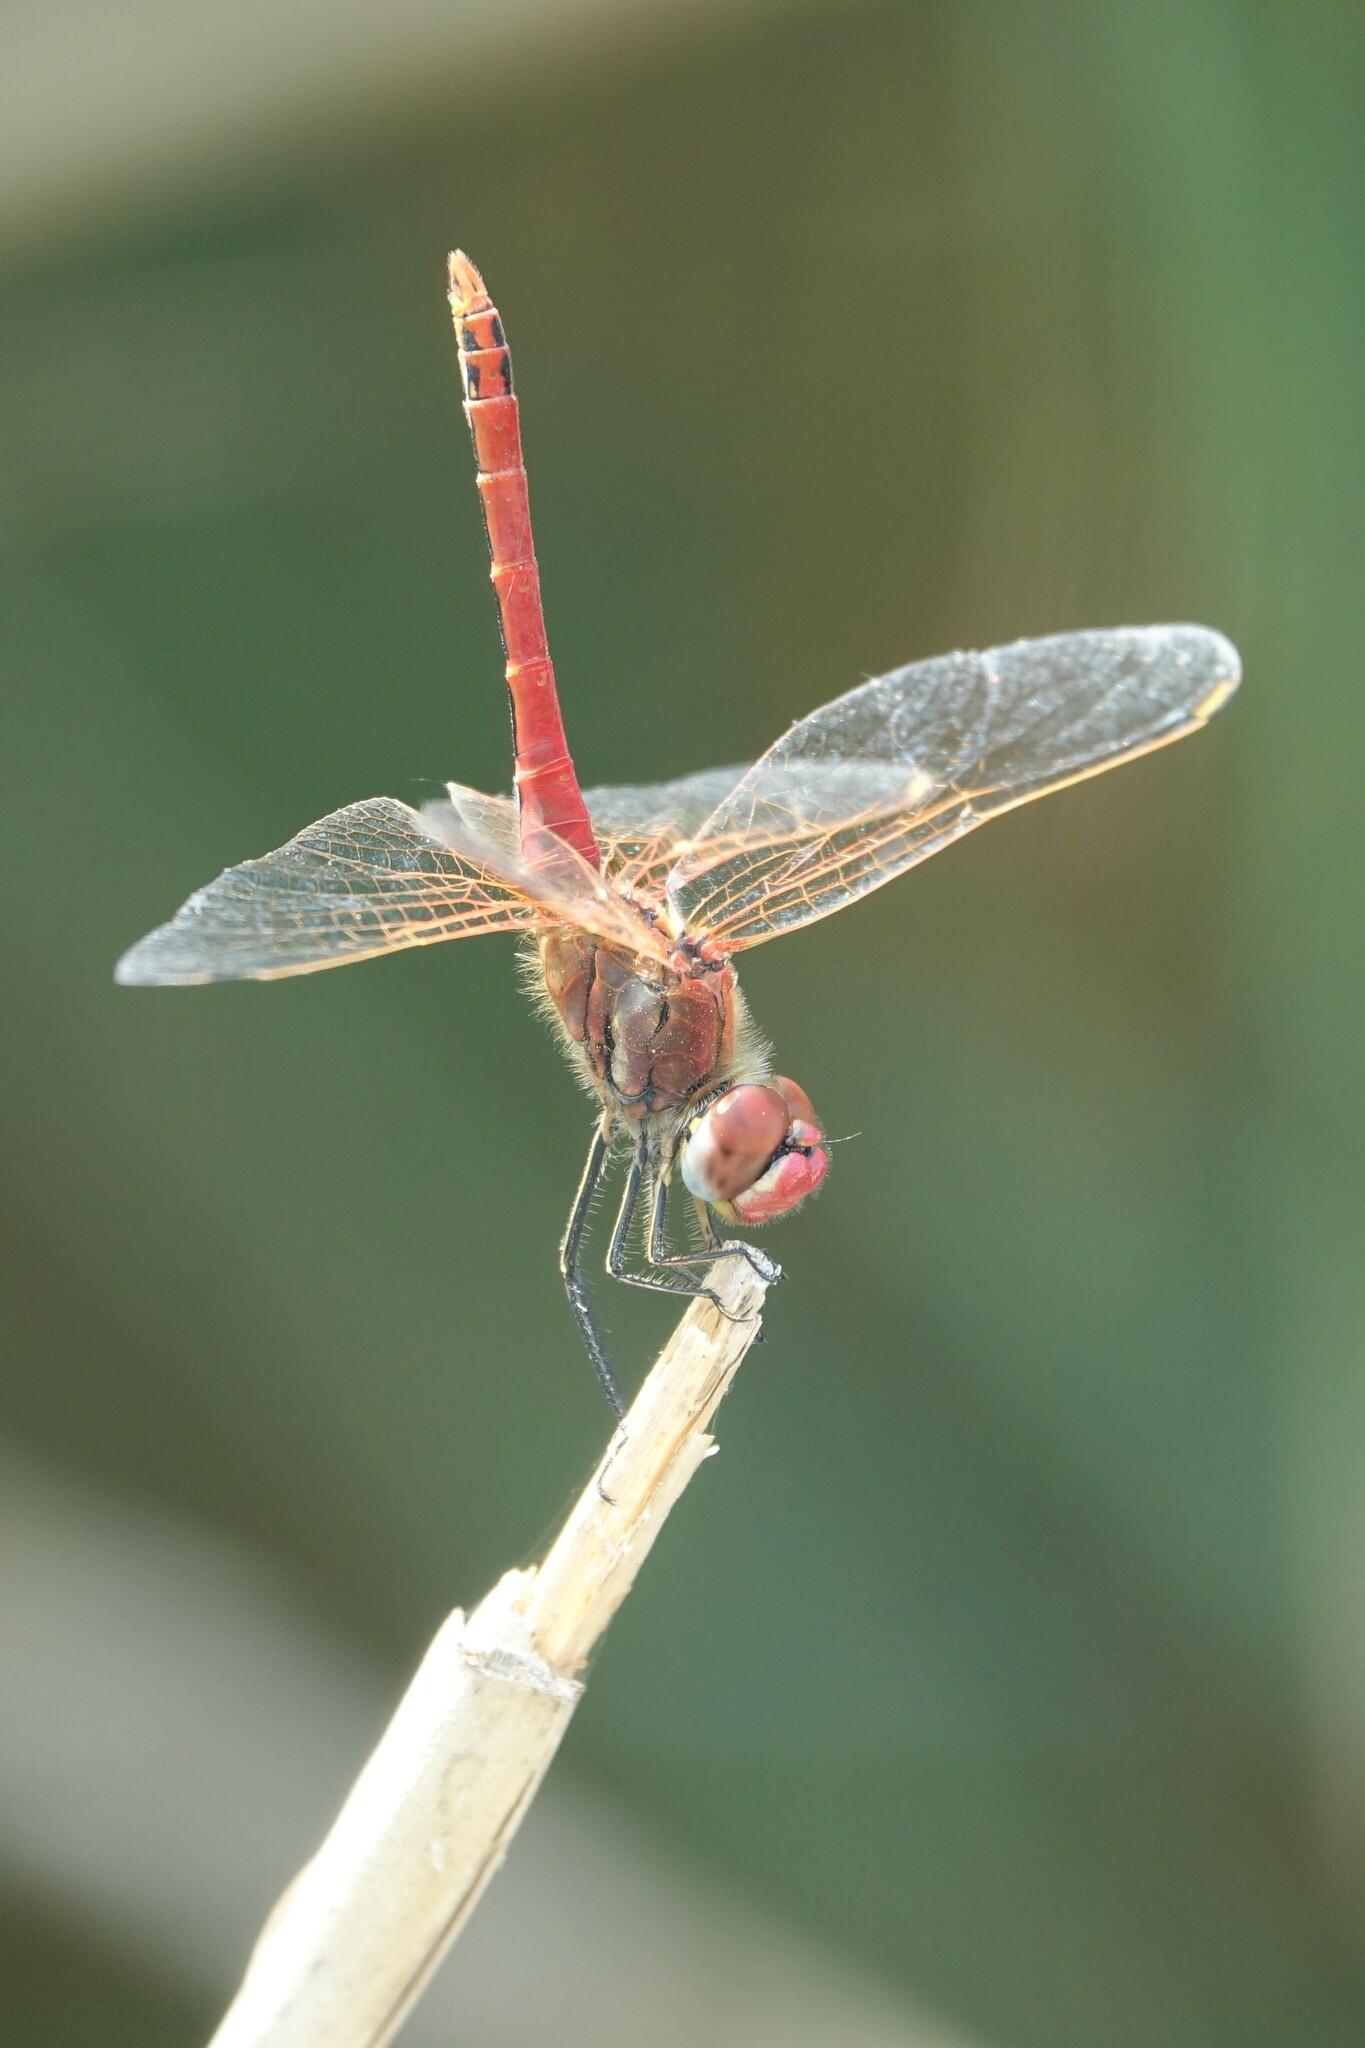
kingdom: Animalia
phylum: Arthropoda
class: Insecta
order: Odonata
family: Libellulidae
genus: Sympetrum
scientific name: Sympetrum fonscolombii
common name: Red-veined darter
